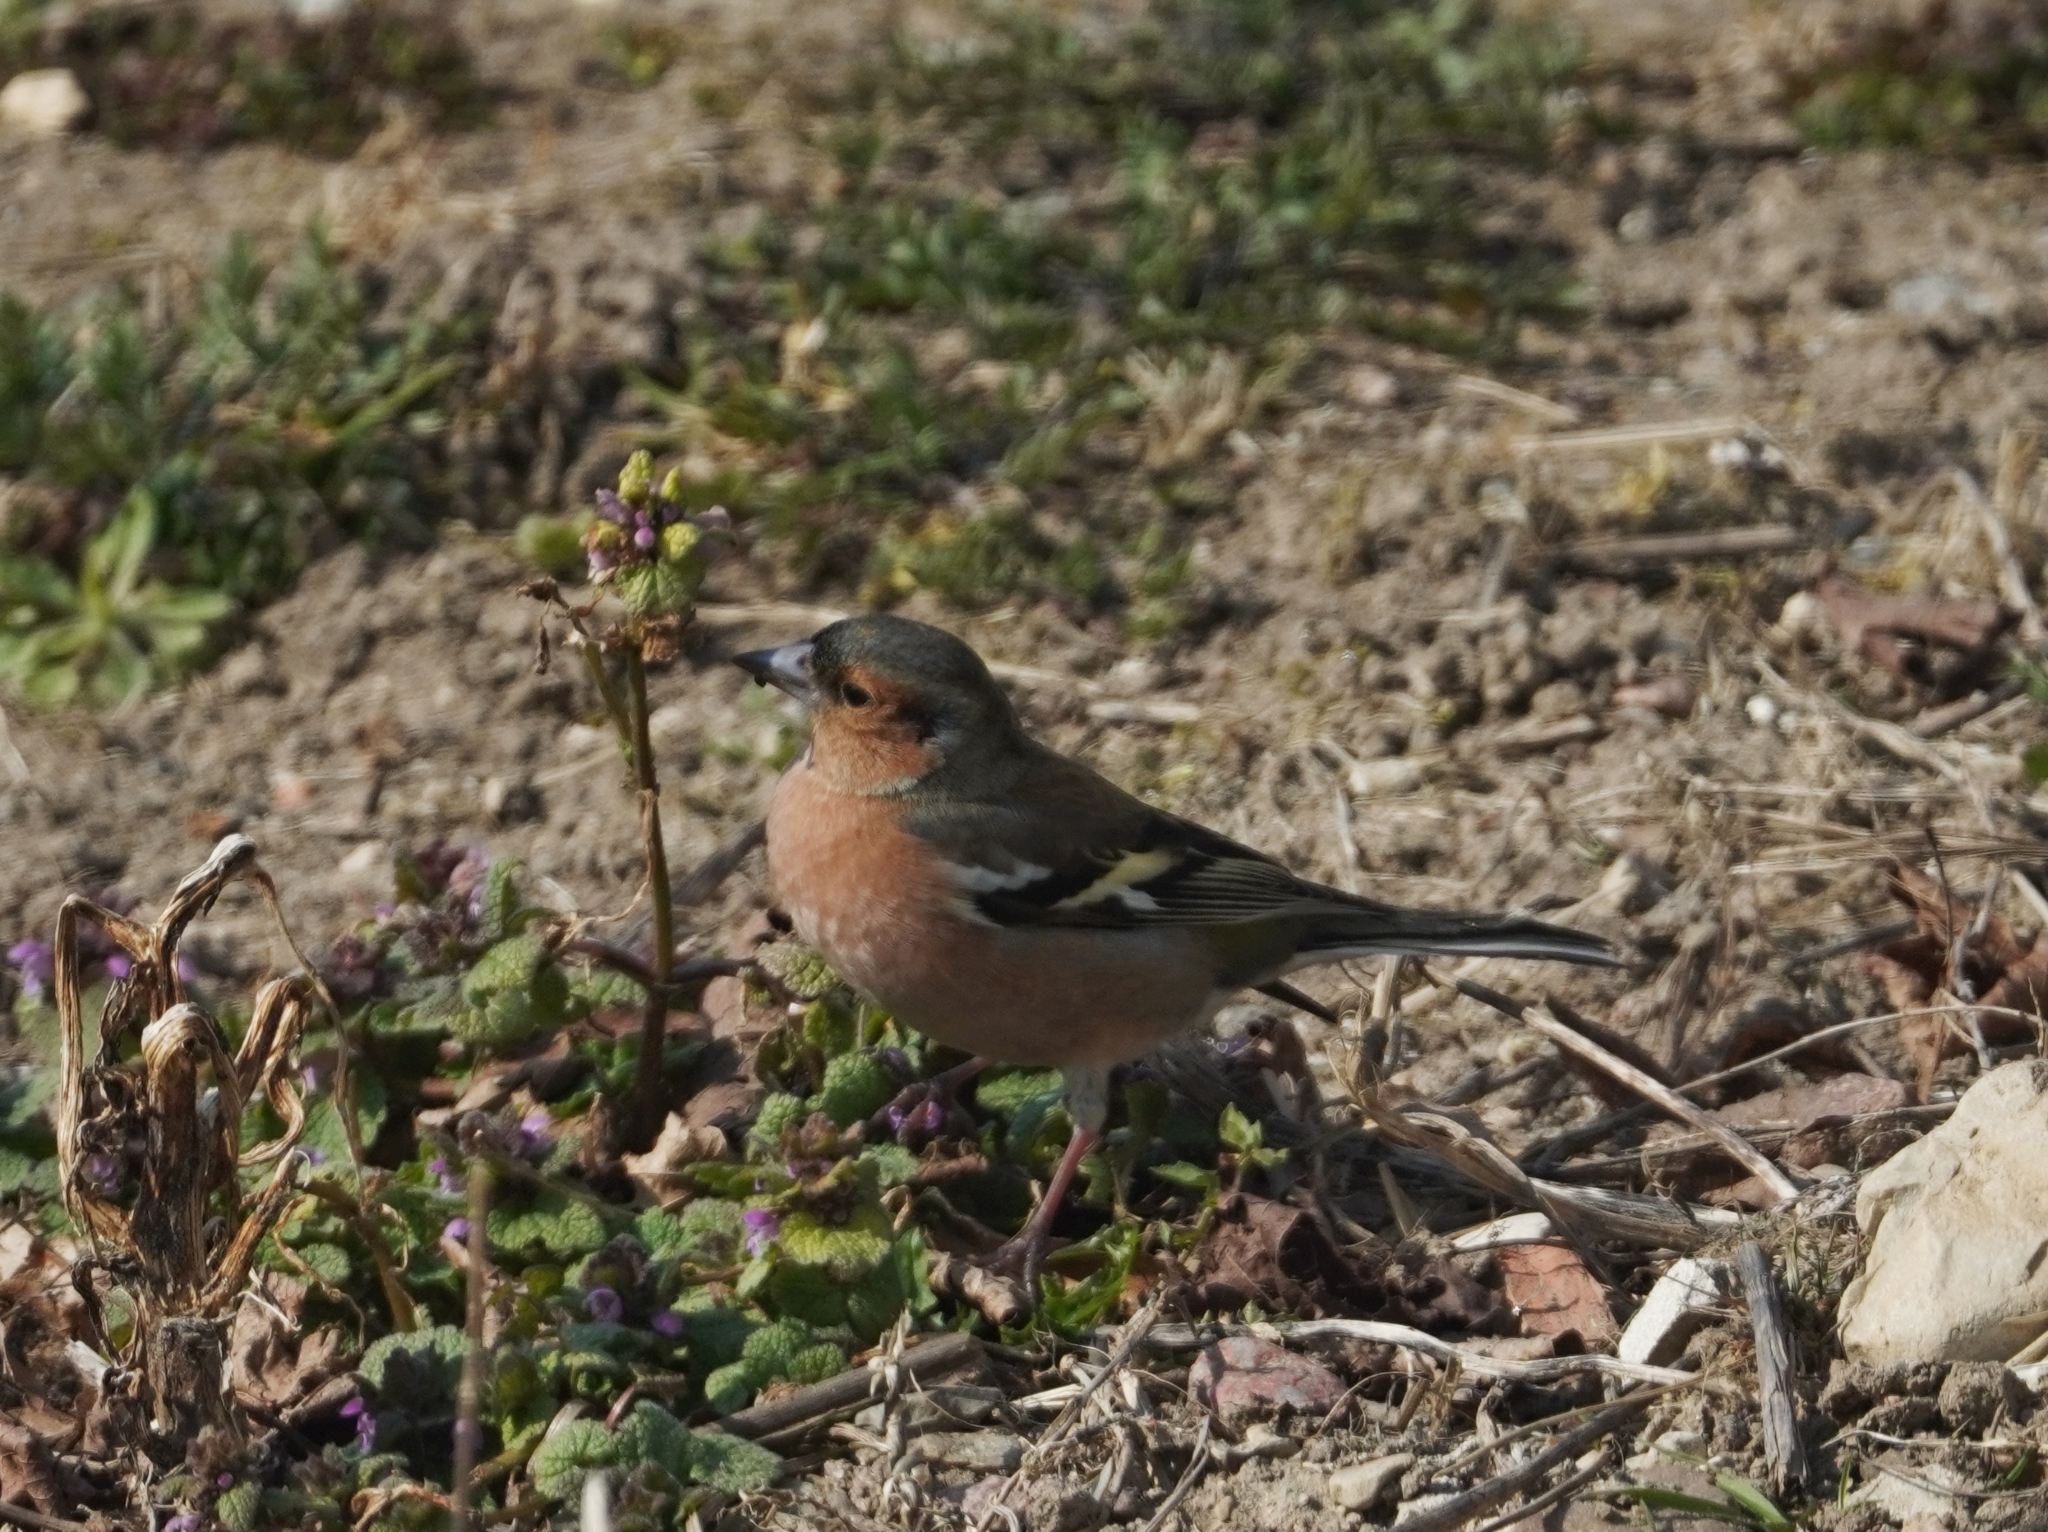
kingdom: Animalia
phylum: Chordata
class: Aves
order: Passeriformes
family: Fringillidae
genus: Fringilla
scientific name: Fringilla coelebs
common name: Common chaffinch
